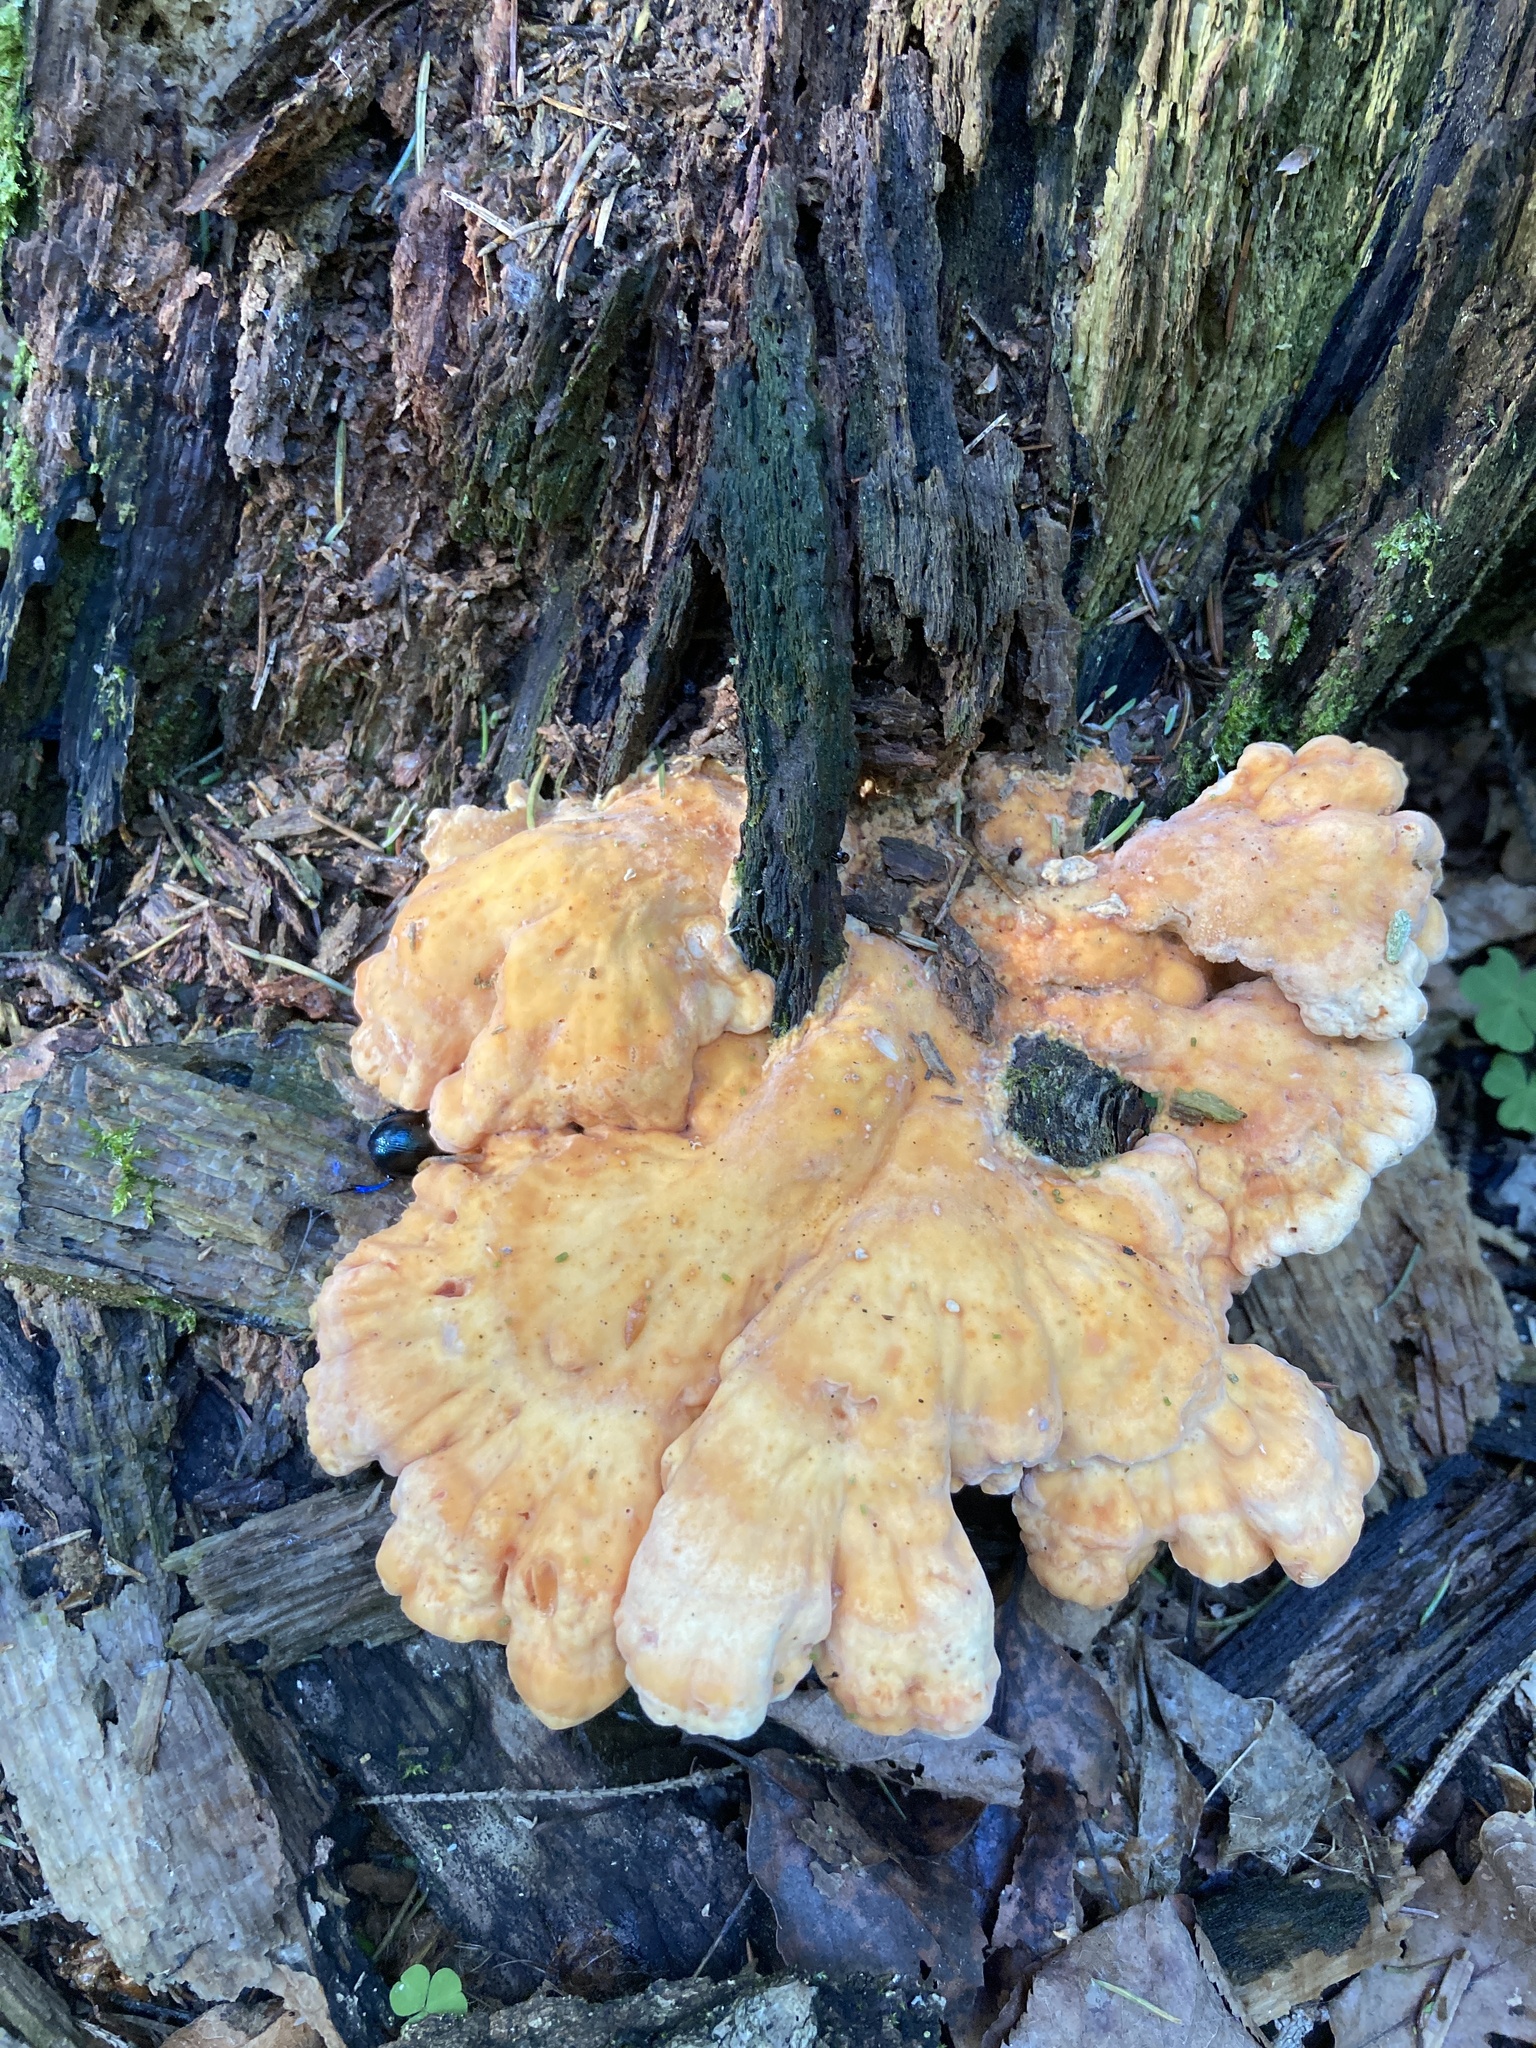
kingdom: Fungi
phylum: Basidiomycota
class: Agaricomycetes
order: Polyporales
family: Laetiporaceae
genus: Laetiporus
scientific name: Laetiporus sulphureus
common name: Chicken of the woods
